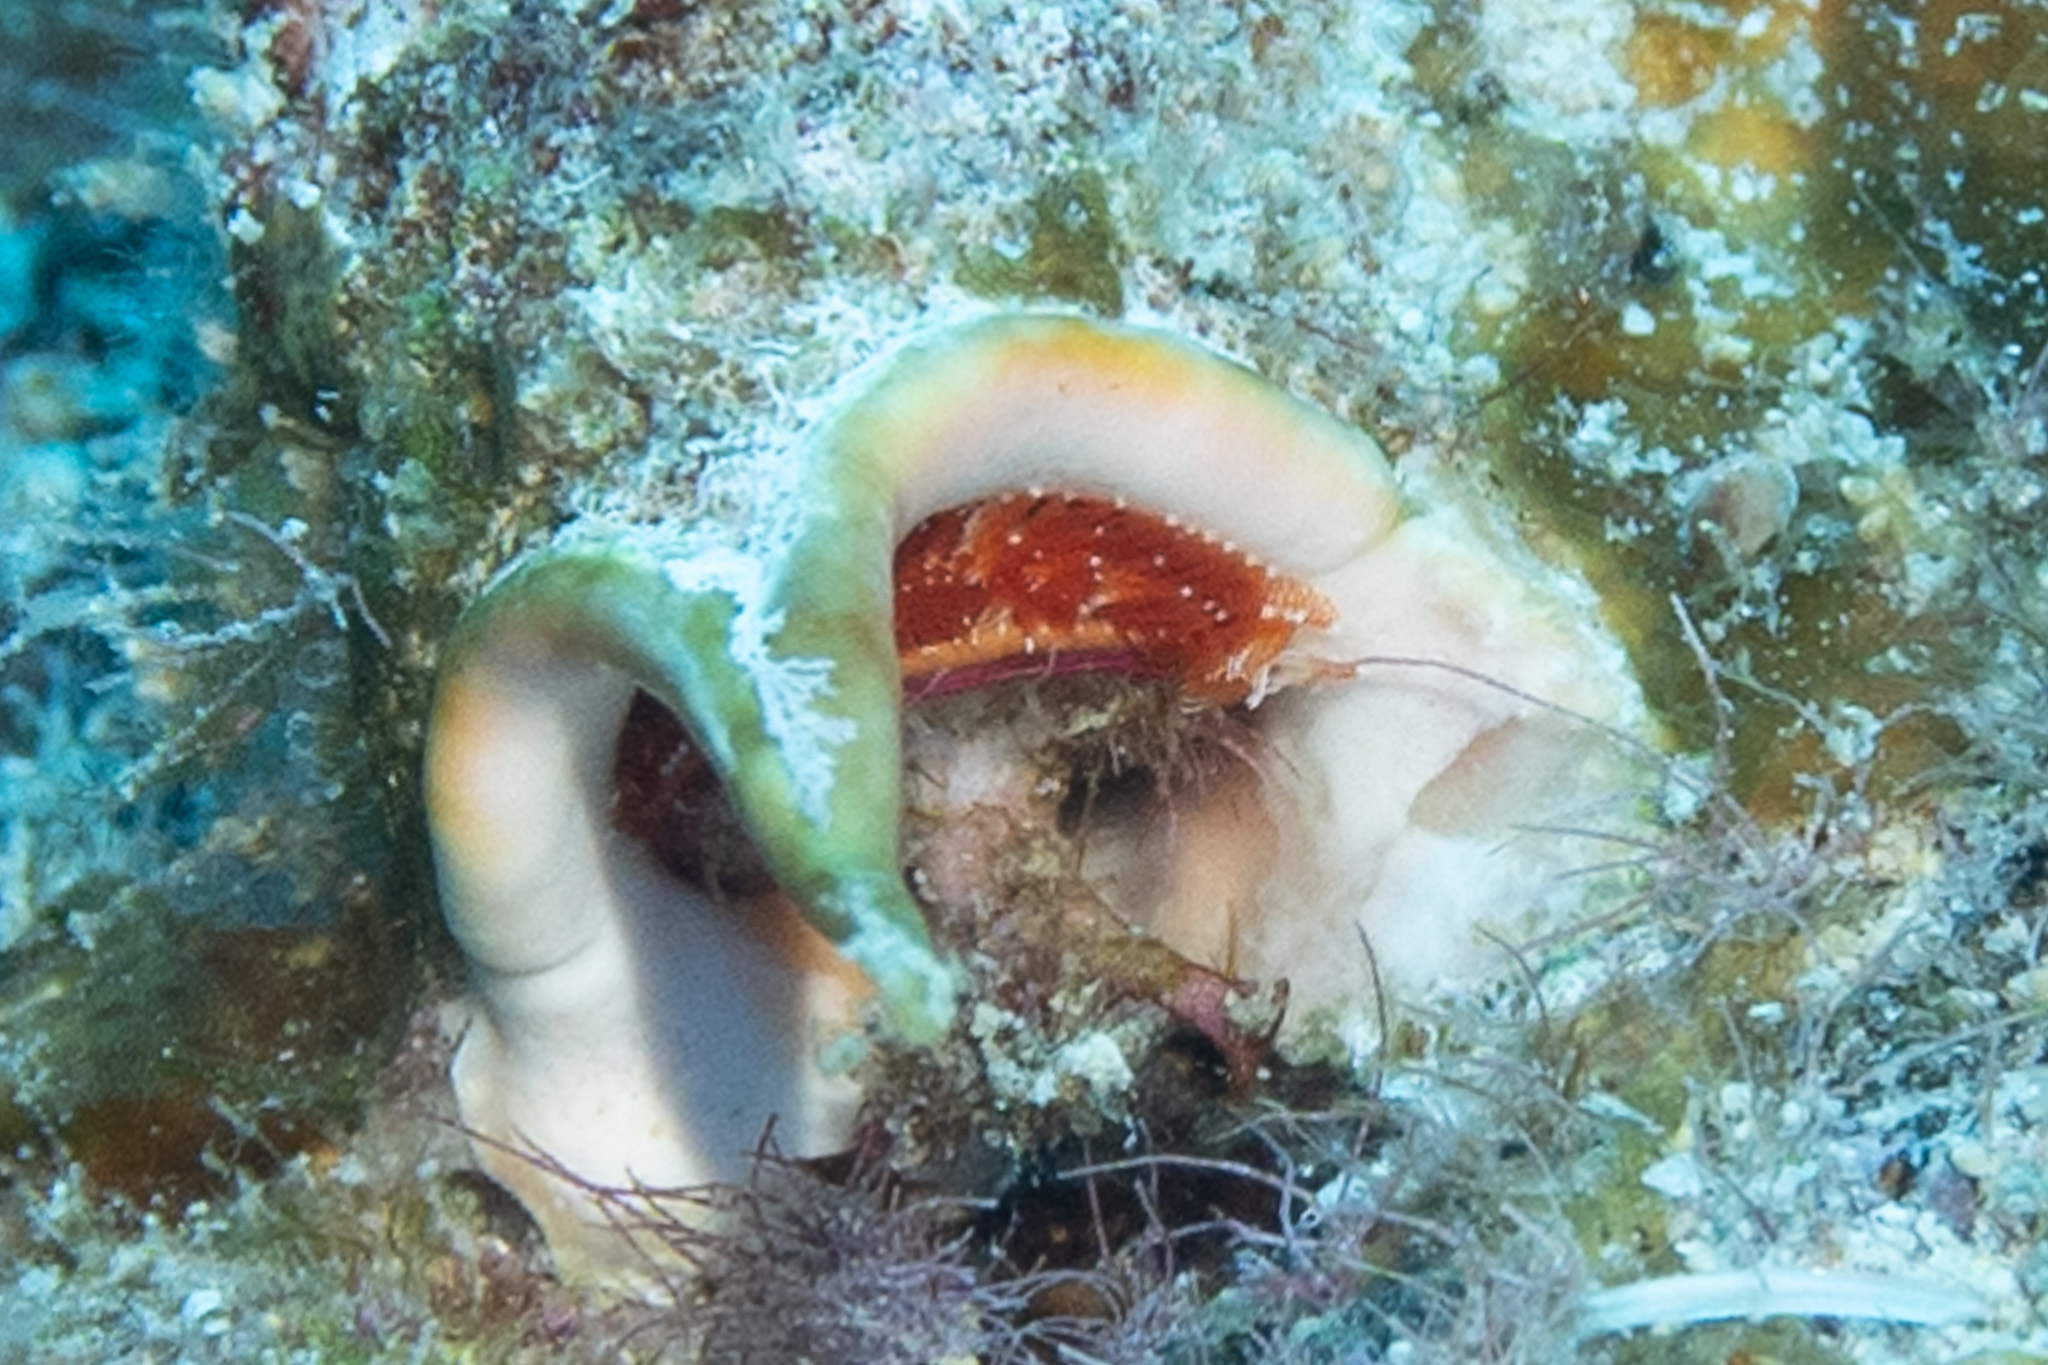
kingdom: Animalia
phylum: Annelida
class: Polychaeta
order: Sabellida
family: Serpulidae
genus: Spirobranchus
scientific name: Spirobranchus
